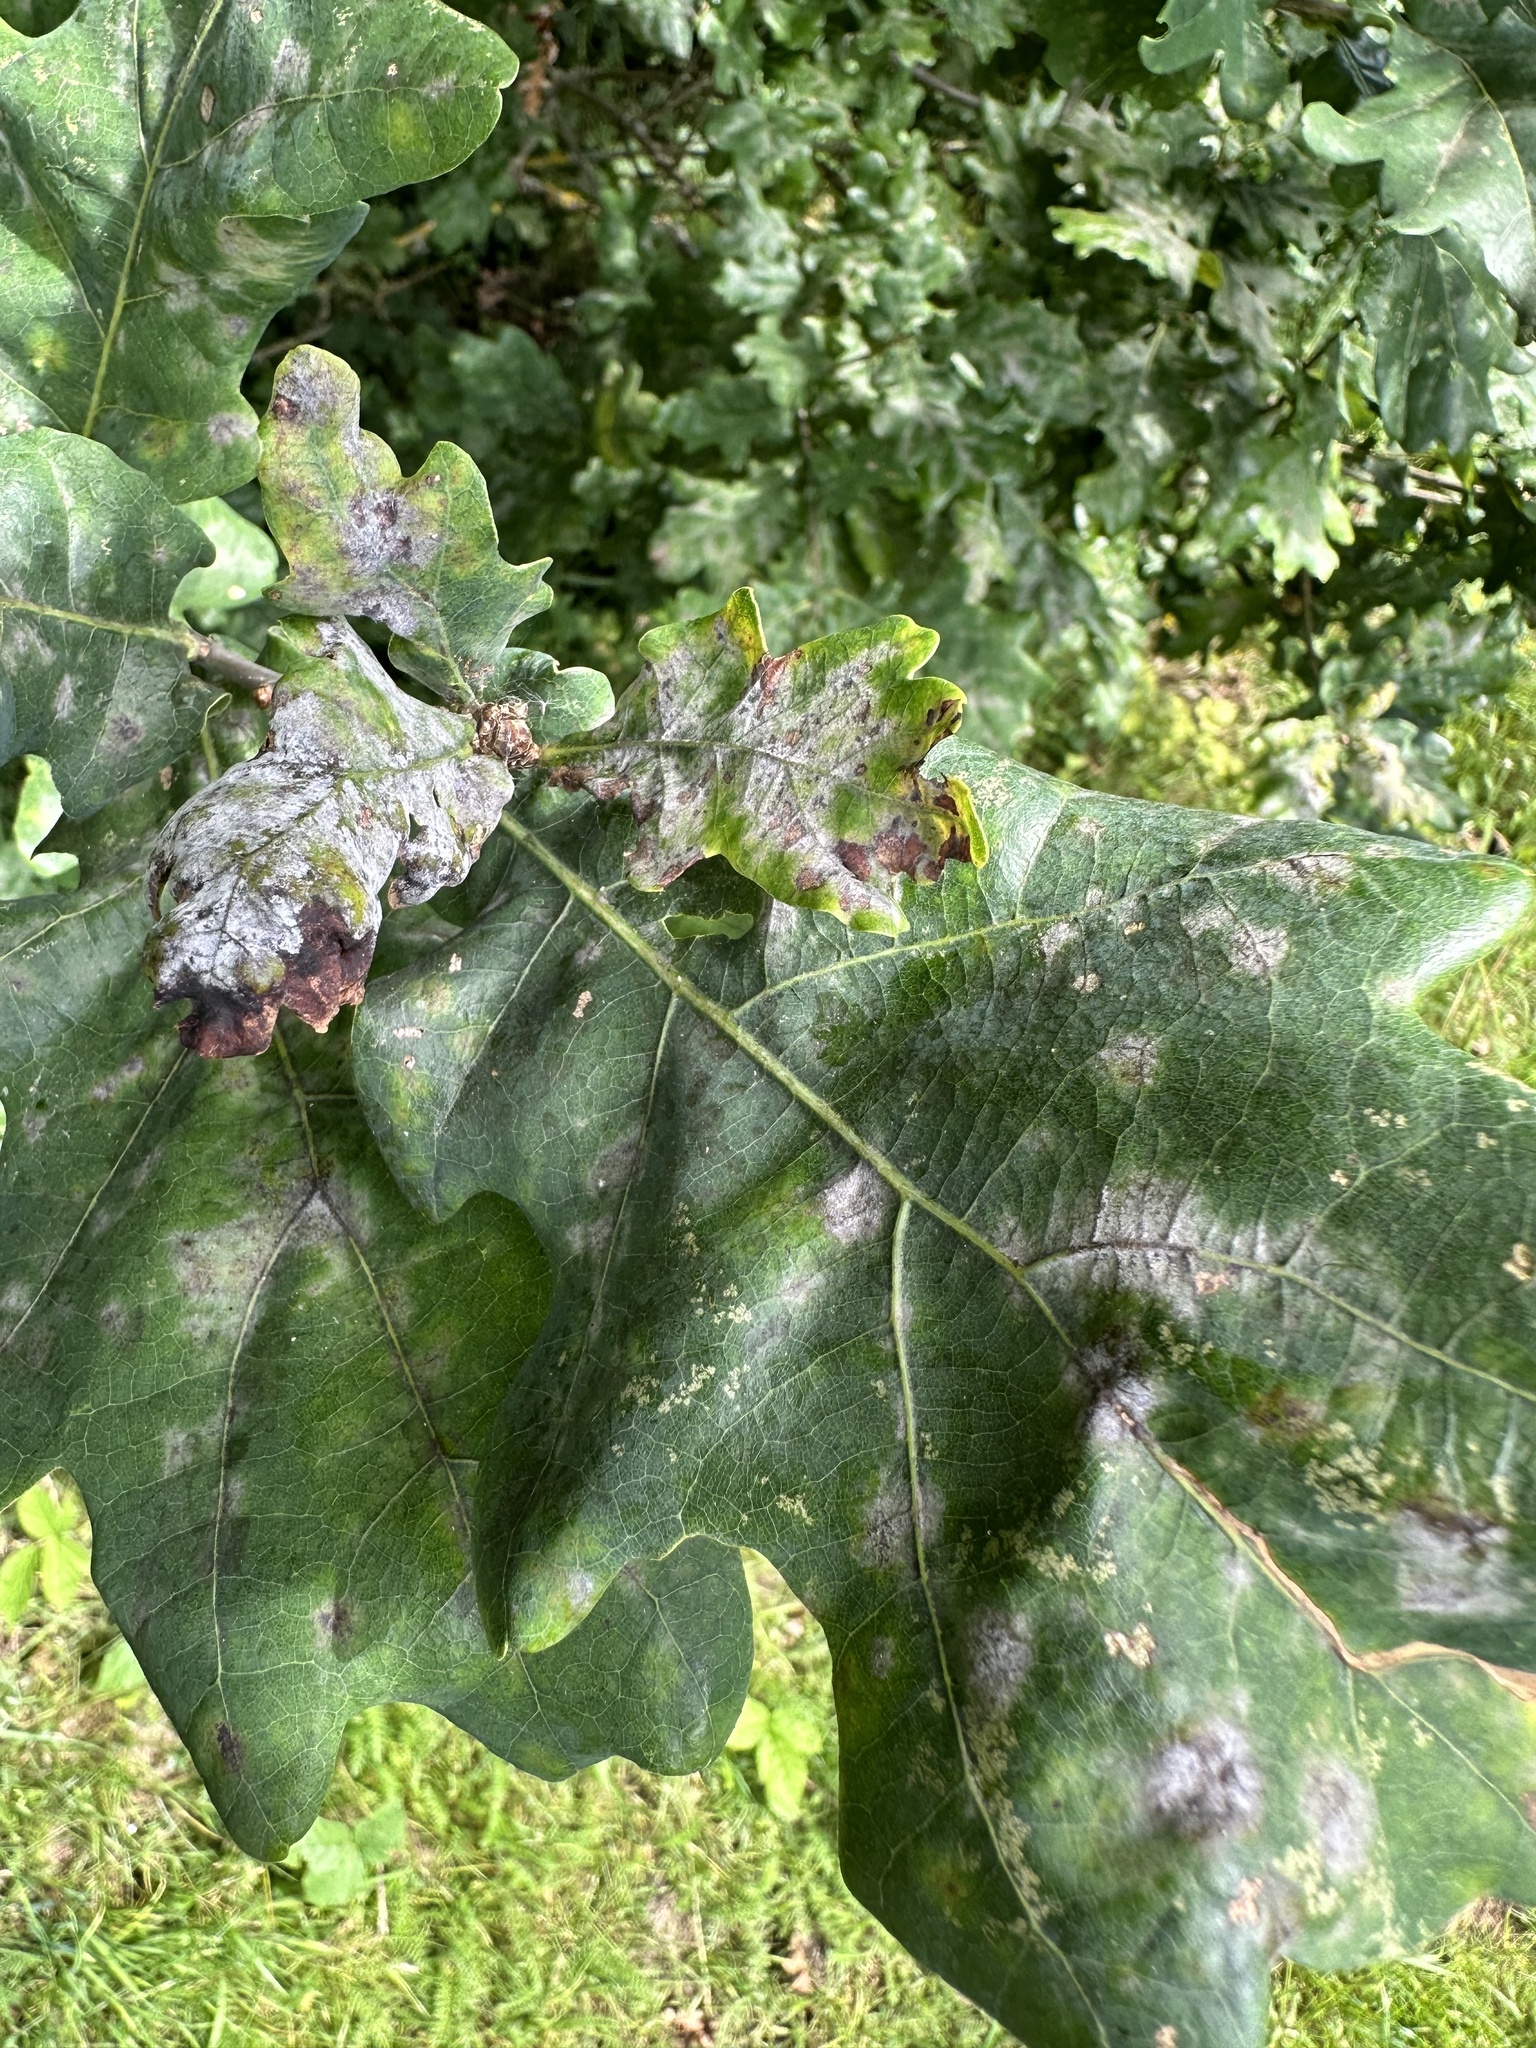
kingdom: Fungi
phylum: Ascomycota
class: Leotiomycetes
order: Helotiales
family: Erysiphaceae
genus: Erysiphe
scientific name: Erysiphe alphitoides
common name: Oak mildew
